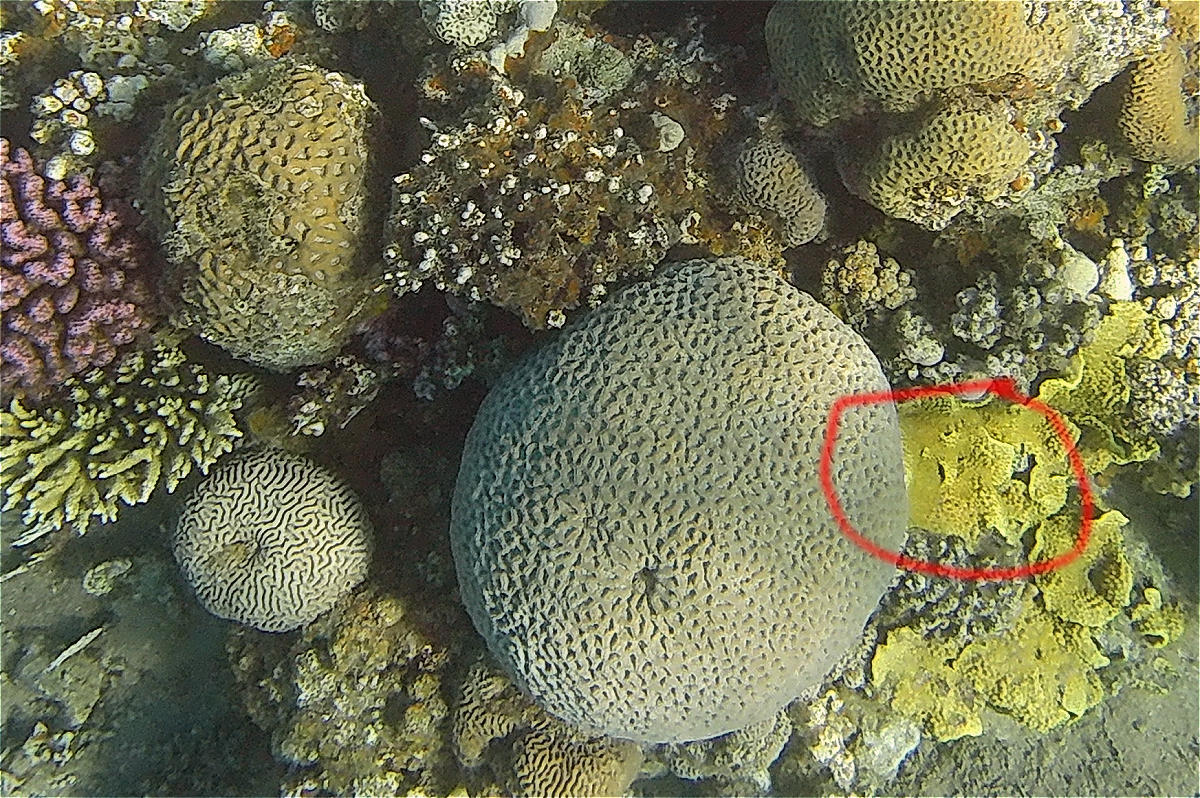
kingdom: Animalia
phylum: Cnidaria
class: Anthozoa
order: Scleractinia
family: Dendrophylliidae
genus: Turbinaria
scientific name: Turbinaria reniformis
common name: Disc coral
